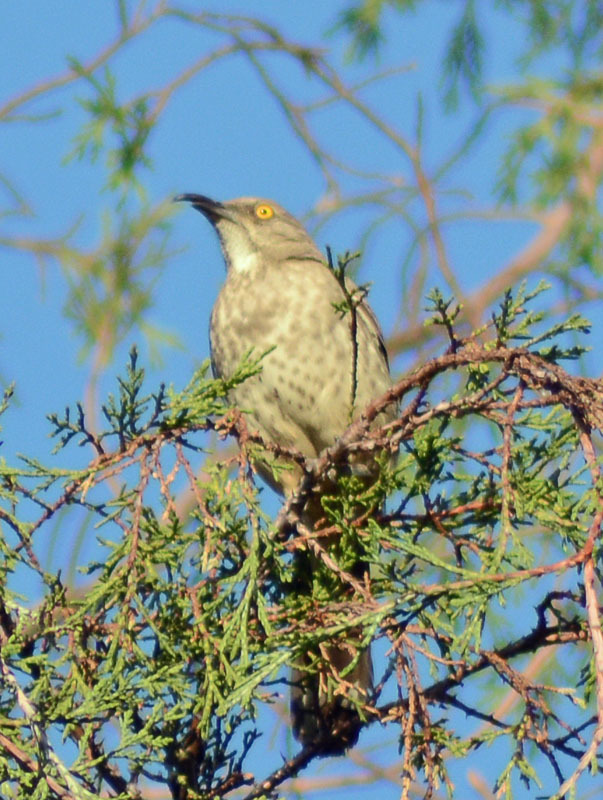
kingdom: Animalia
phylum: Chordata
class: Aves
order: Passeriformes
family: Mimidae
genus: Toxostoma
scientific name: Toxostoma curvirostre
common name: Curve-billed thrasher
